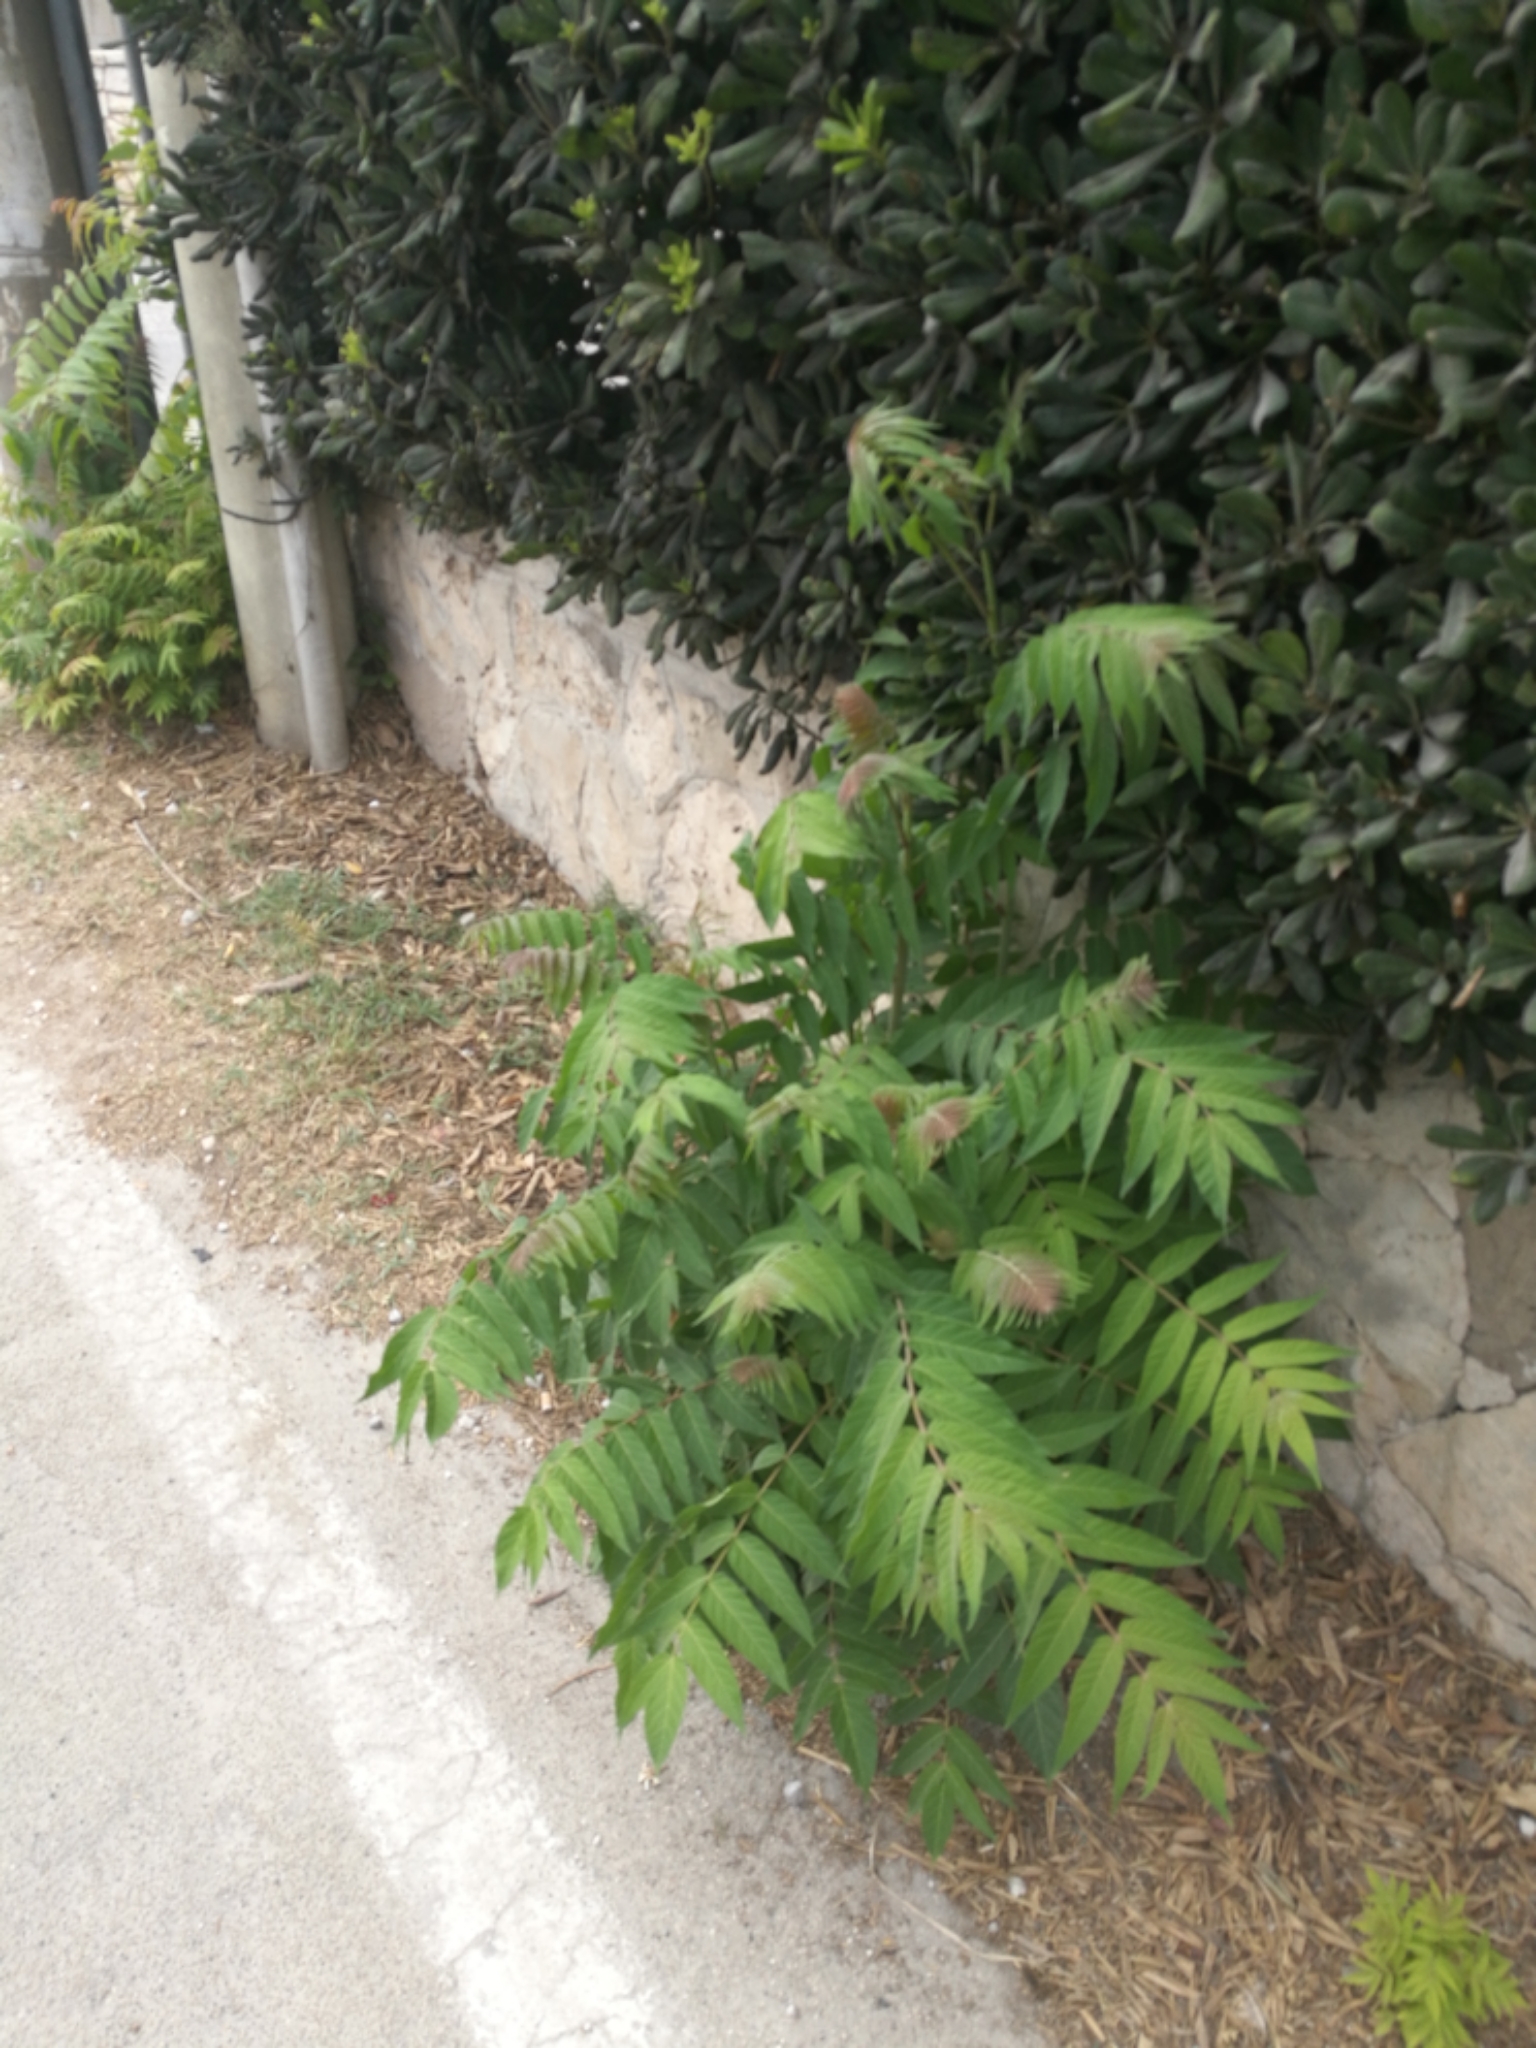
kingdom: Plantae
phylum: Tracheophyta
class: Magnoliopsida
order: Sapindales
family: Simaroubaceae
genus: Ailanthus
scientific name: Ailanthus altissima
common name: Tree-of-heaven
